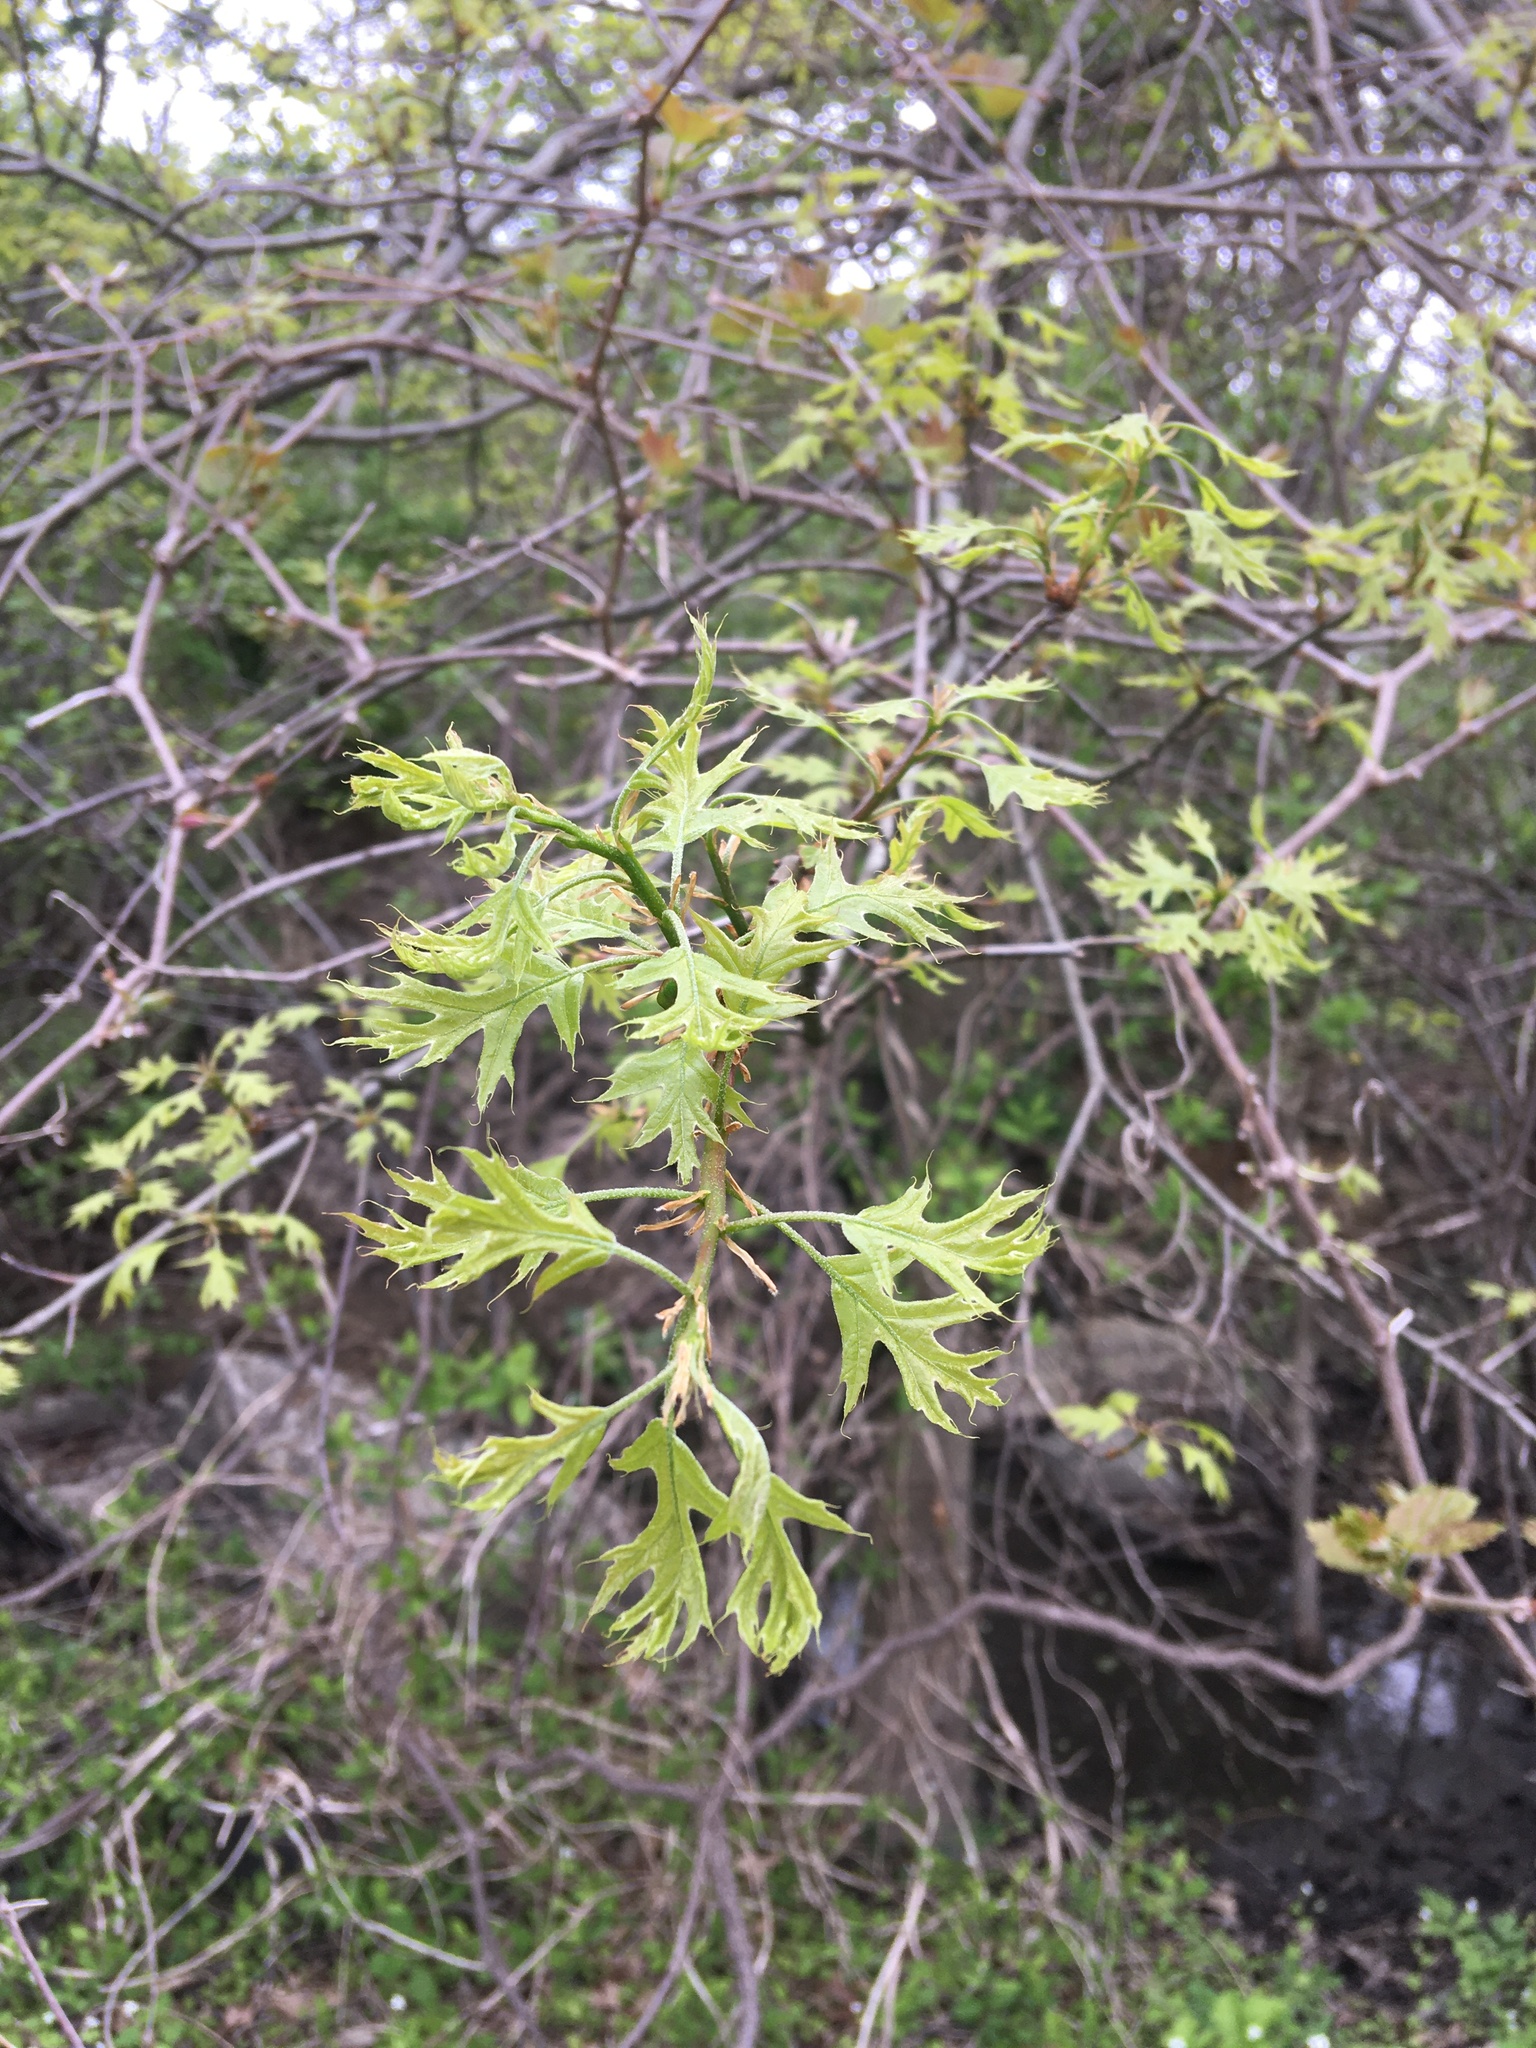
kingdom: Plantae
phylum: Tracheophyta
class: Magnoliopsida
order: Fagales
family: Fagaceae
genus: Quercus
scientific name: Quercus palustris
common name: Pin oak
